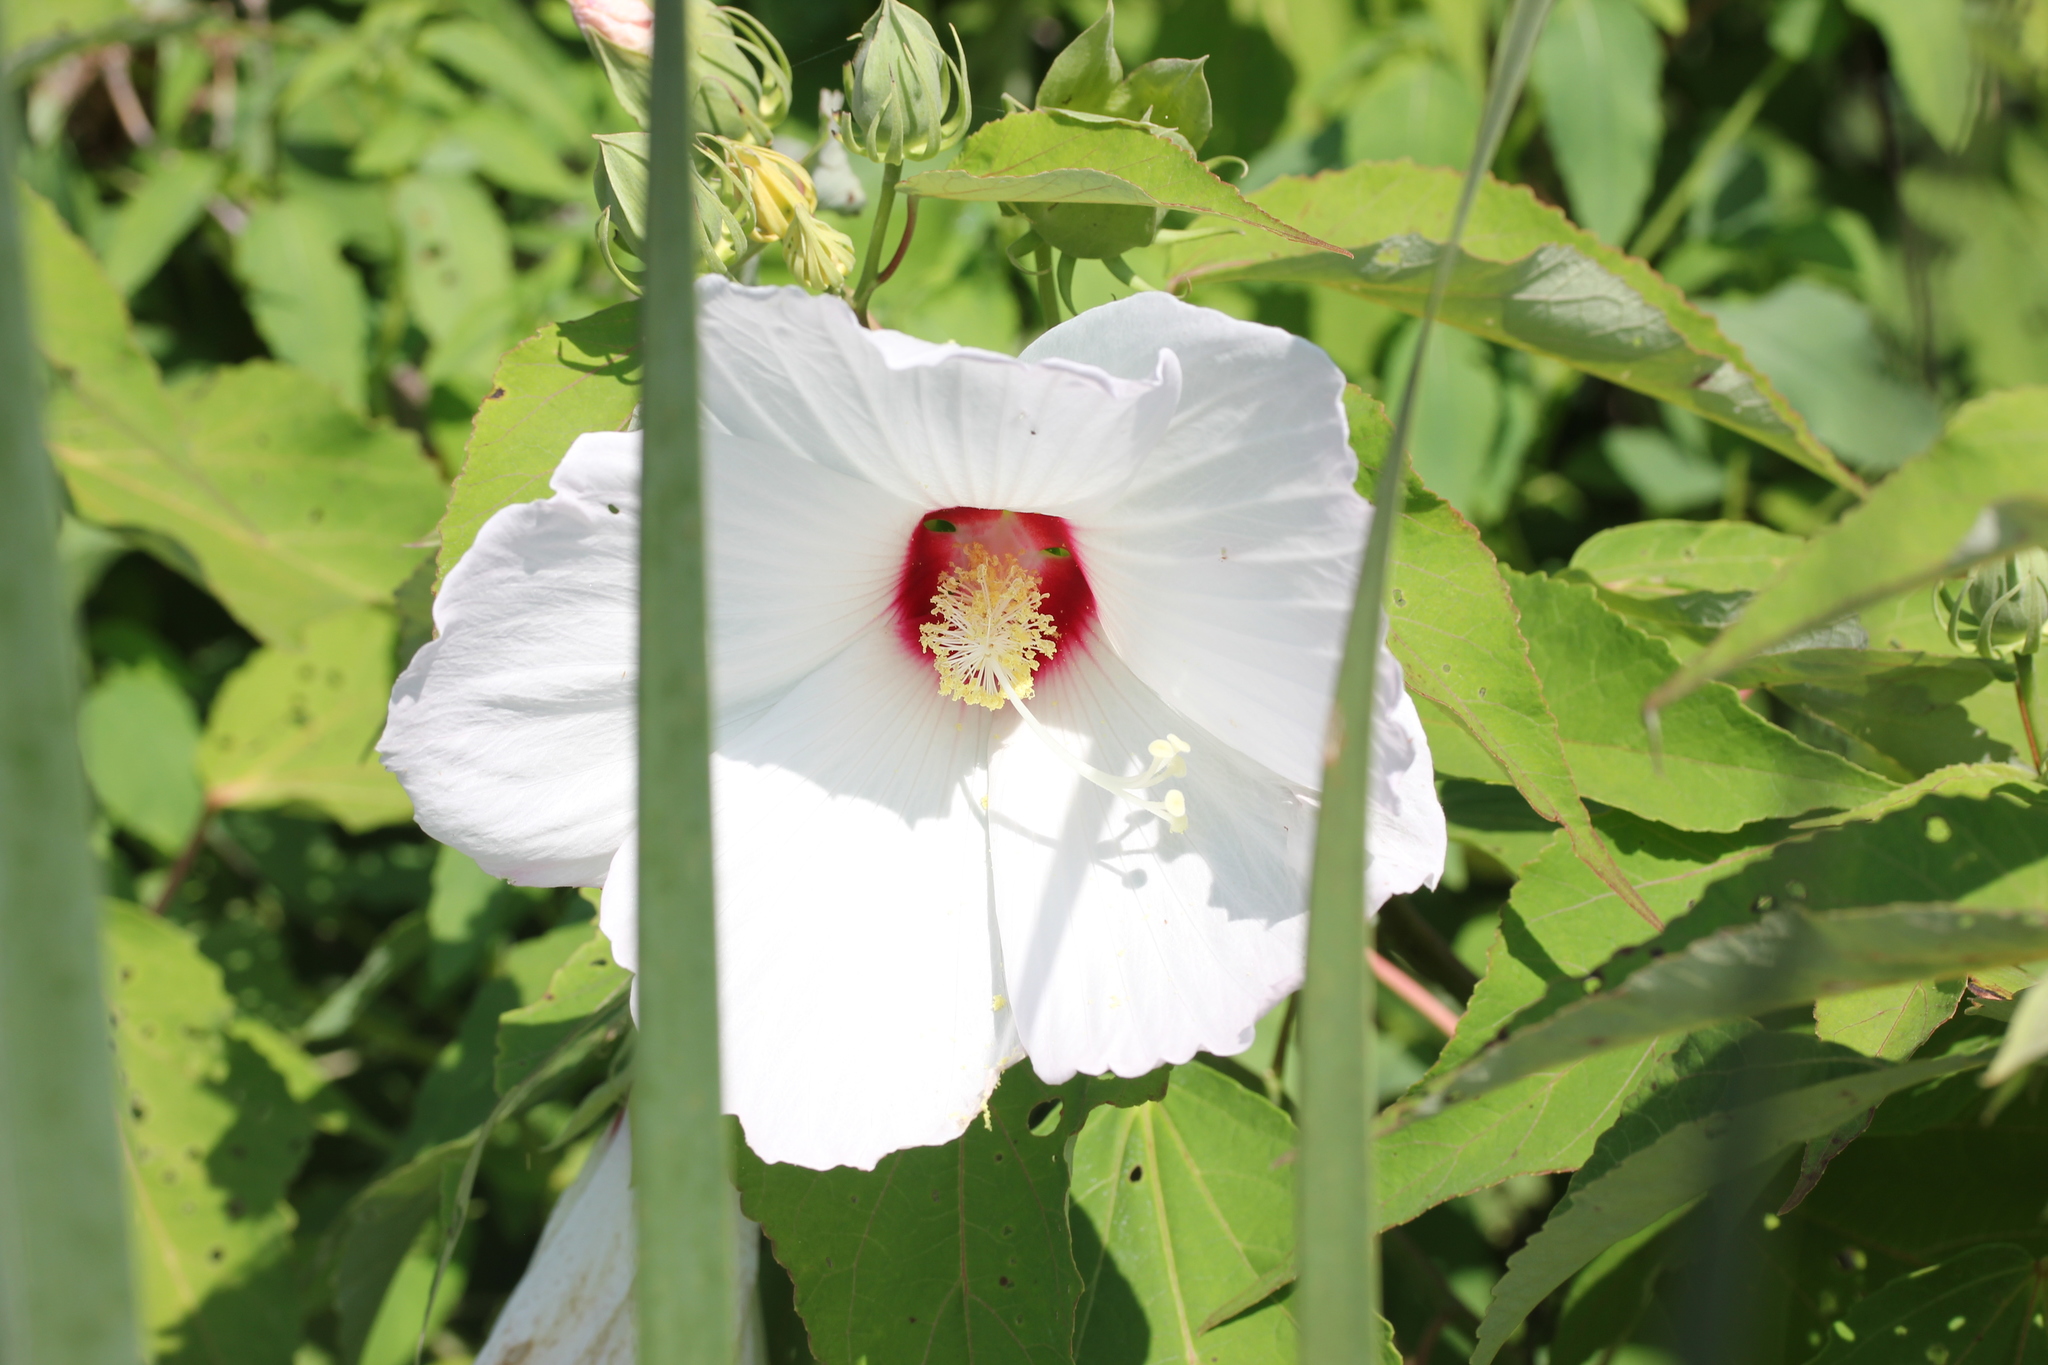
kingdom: Plantae
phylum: Tracheophyta
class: Magnoliopsida
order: Malvales
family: Malvaceae
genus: Hibiscus
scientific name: Hibiscus moscheutos
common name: Common rose-mallow
